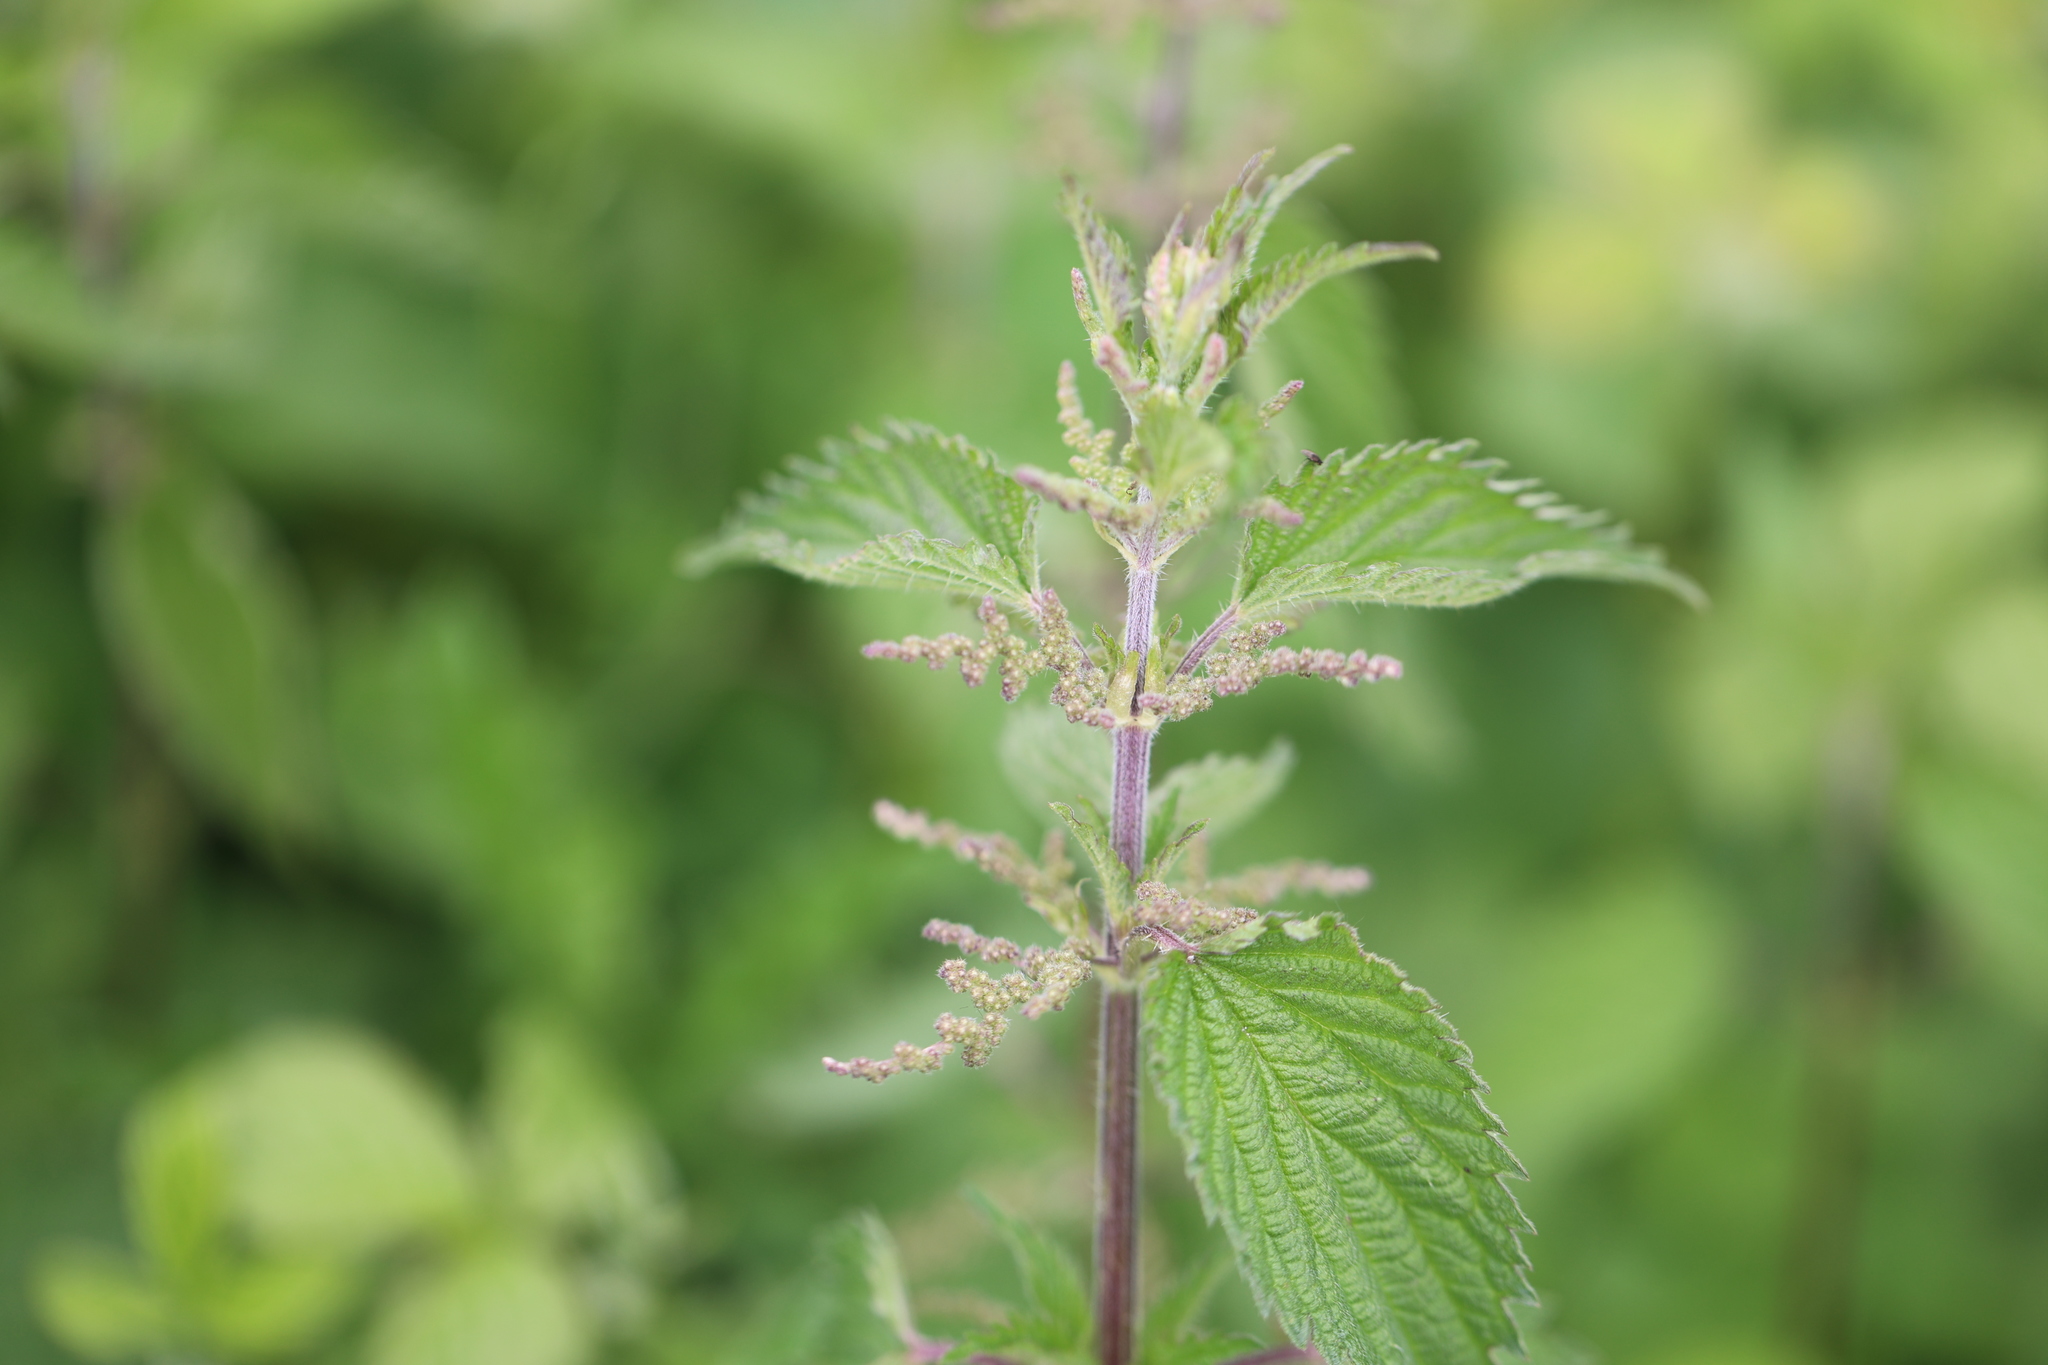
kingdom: Plantae
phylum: Tracheophyta
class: Magnoliopsida
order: Rosales
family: Urticaceae
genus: Urtica
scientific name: Urtica dioica
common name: Common nettle
